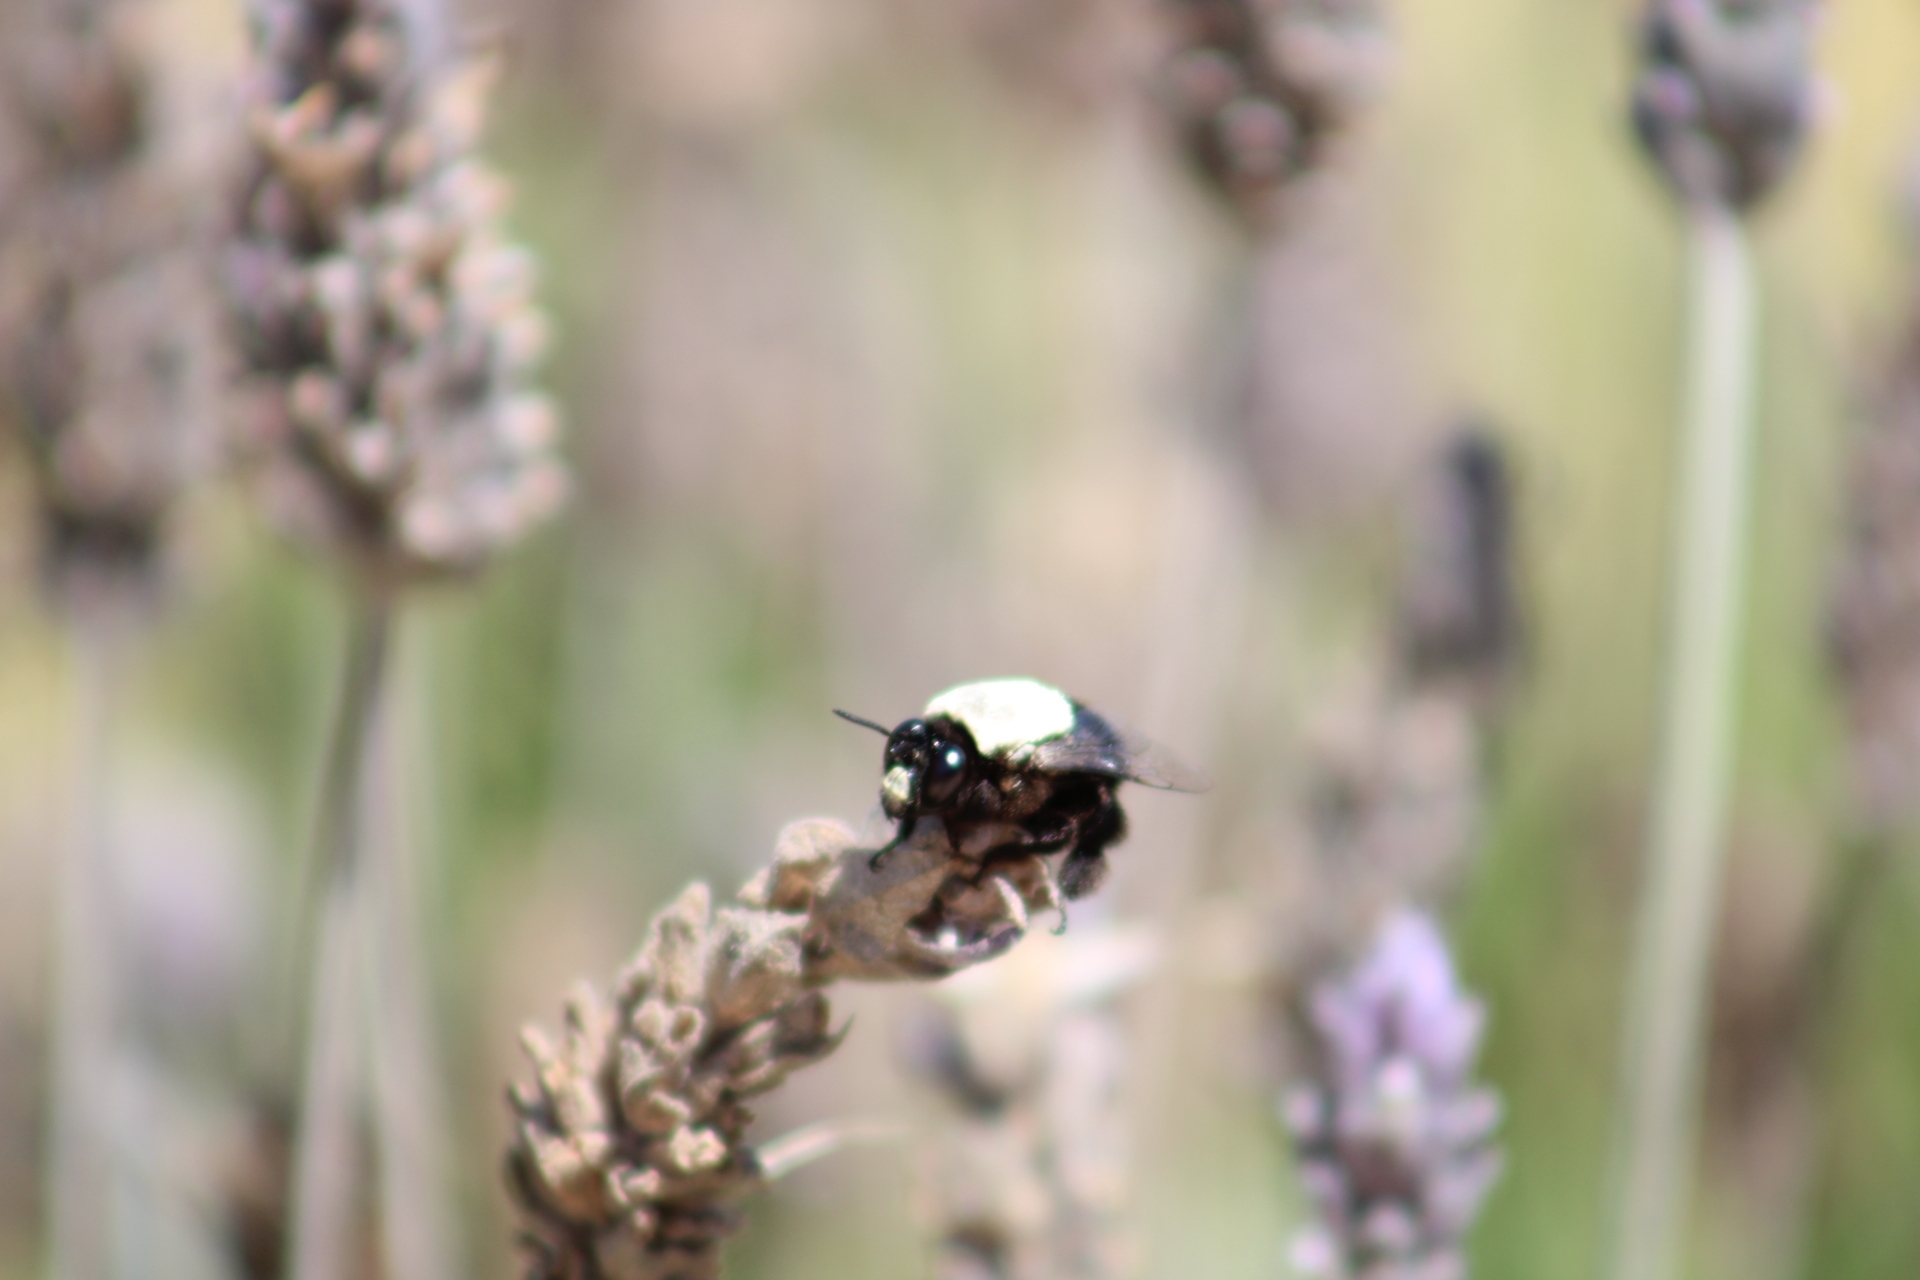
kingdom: Animalia
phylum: Arthropoda
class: Insecta
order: Hymenoptera
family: Apidae
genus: Centris
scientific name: Centris cineraria
